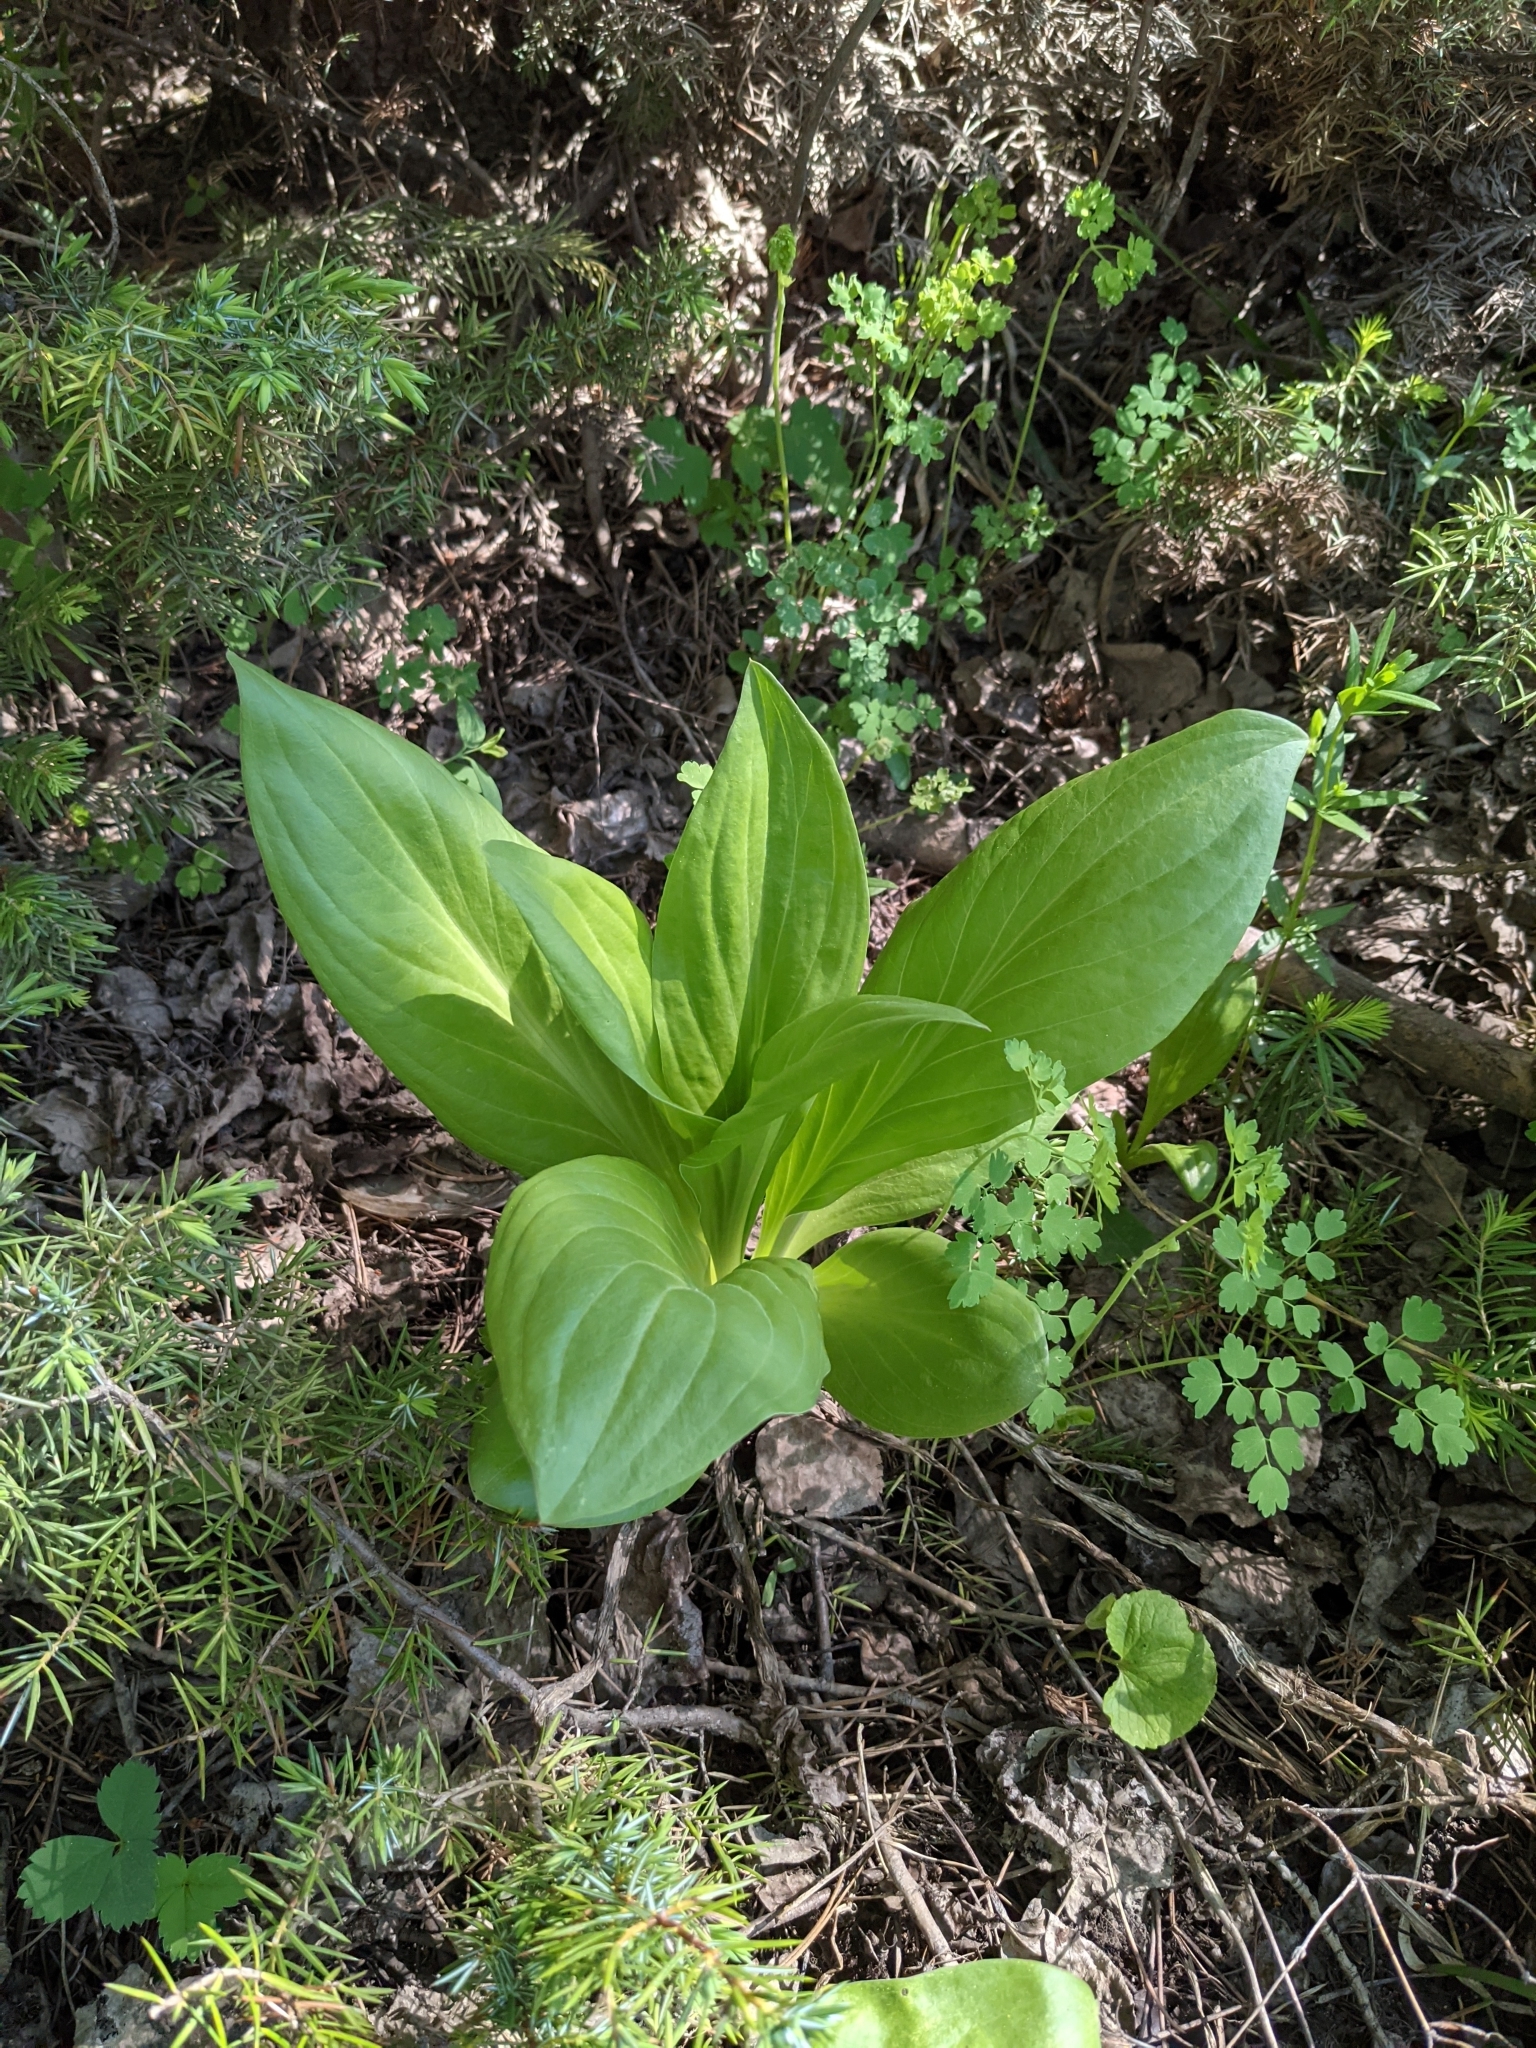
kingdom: Plantae
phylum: Tracheophyta
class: Magnoliopsida
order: Gentianales
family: Gentianaceae
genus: Frasera
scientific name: Frasera speciosa
